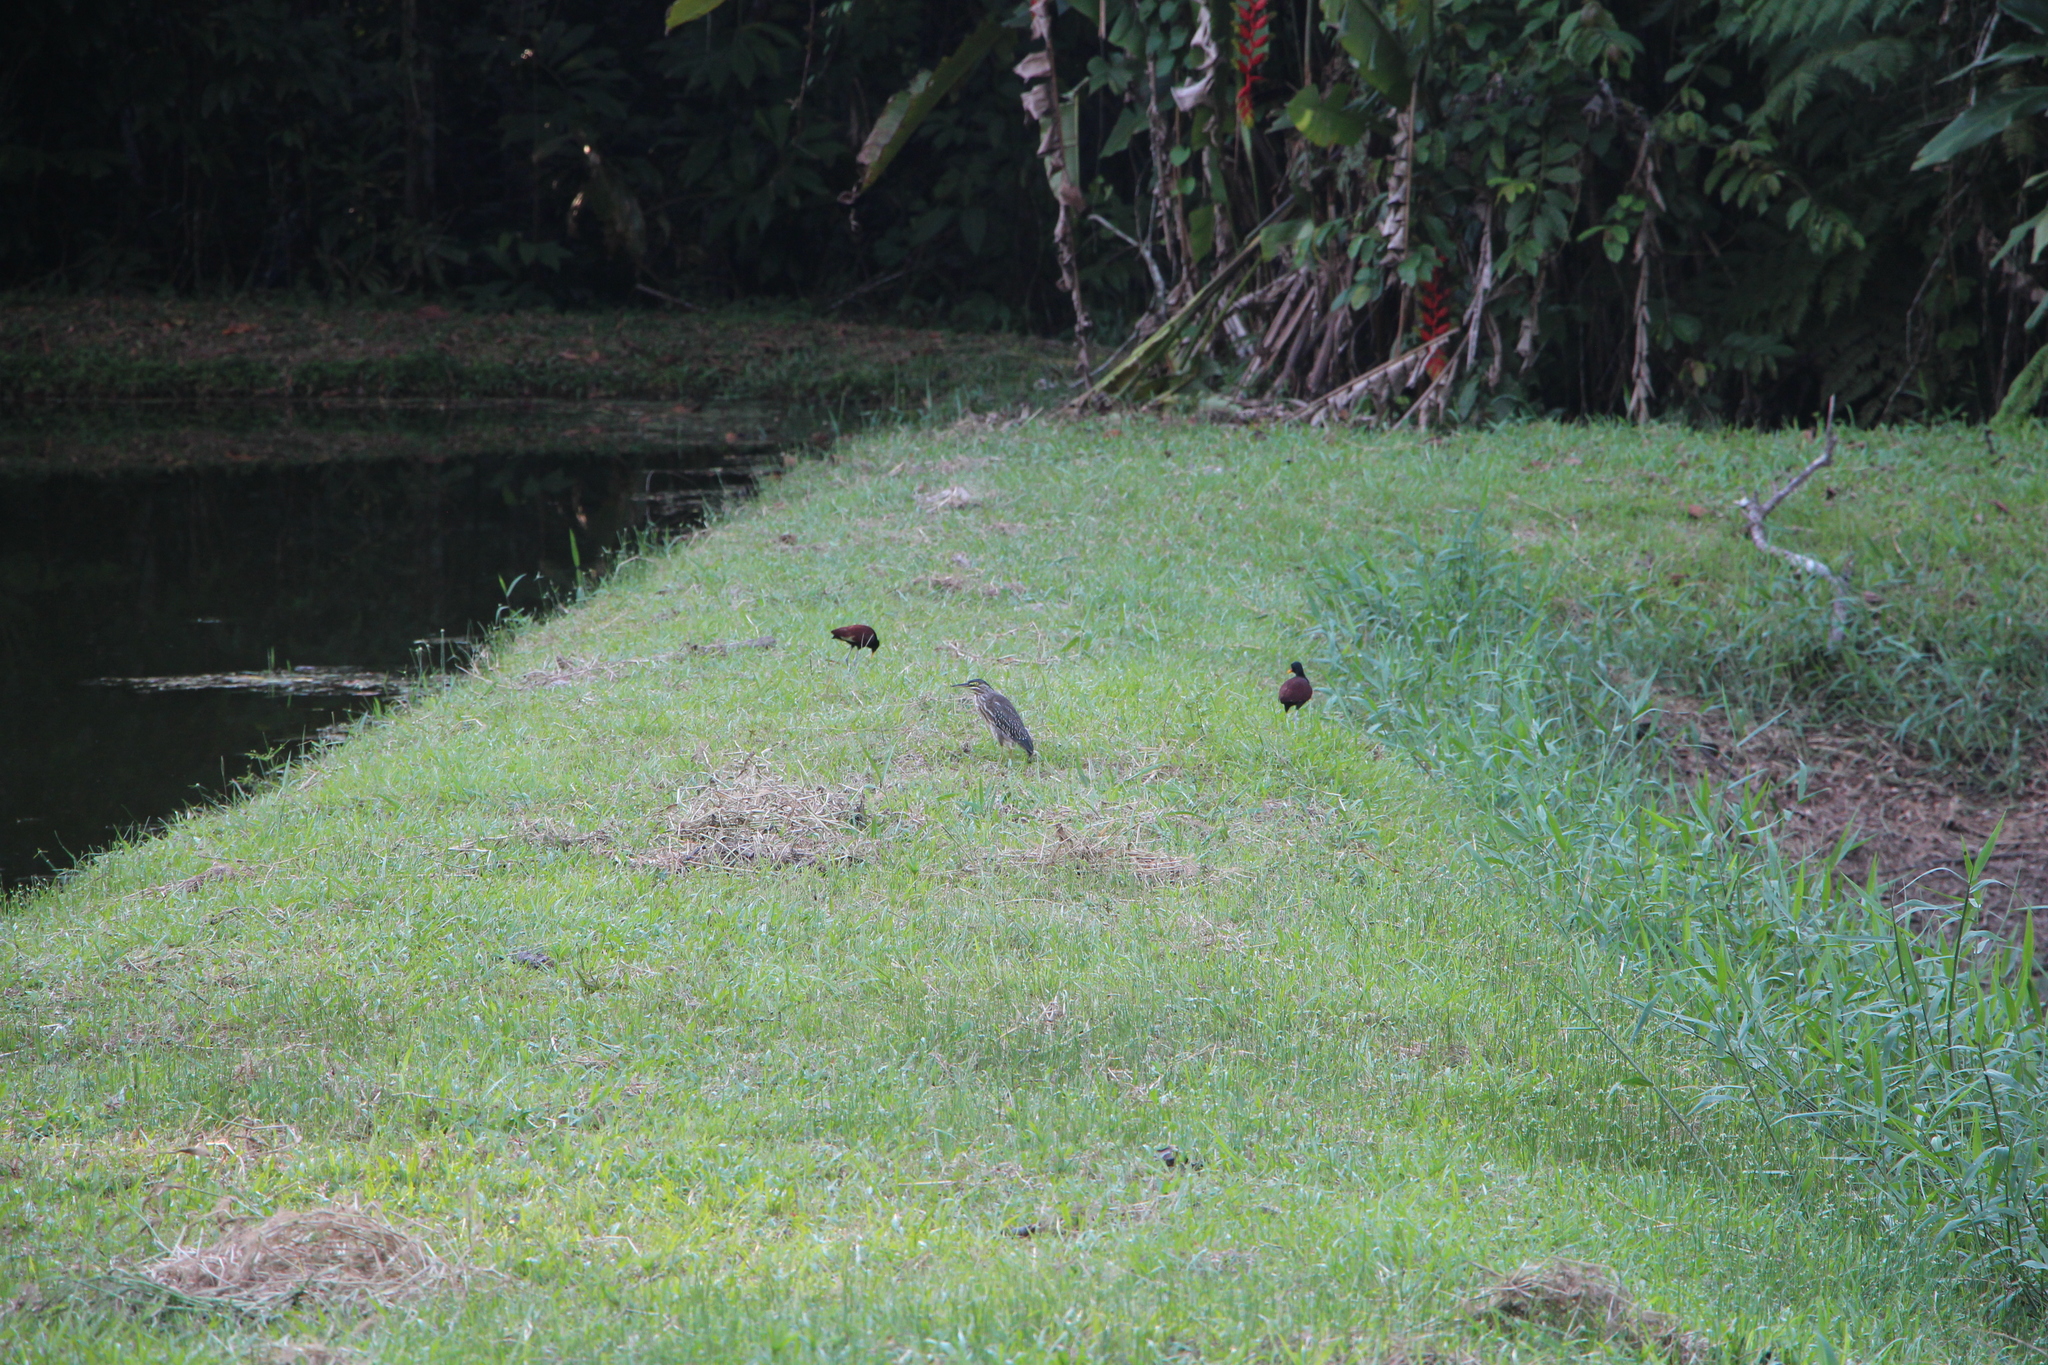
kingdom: Animalia
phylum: Chordata
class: Aves
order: Charadriiformes
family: Jacanidae
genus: Jacana
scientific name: Jacana jacana
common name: Wattled jacana
